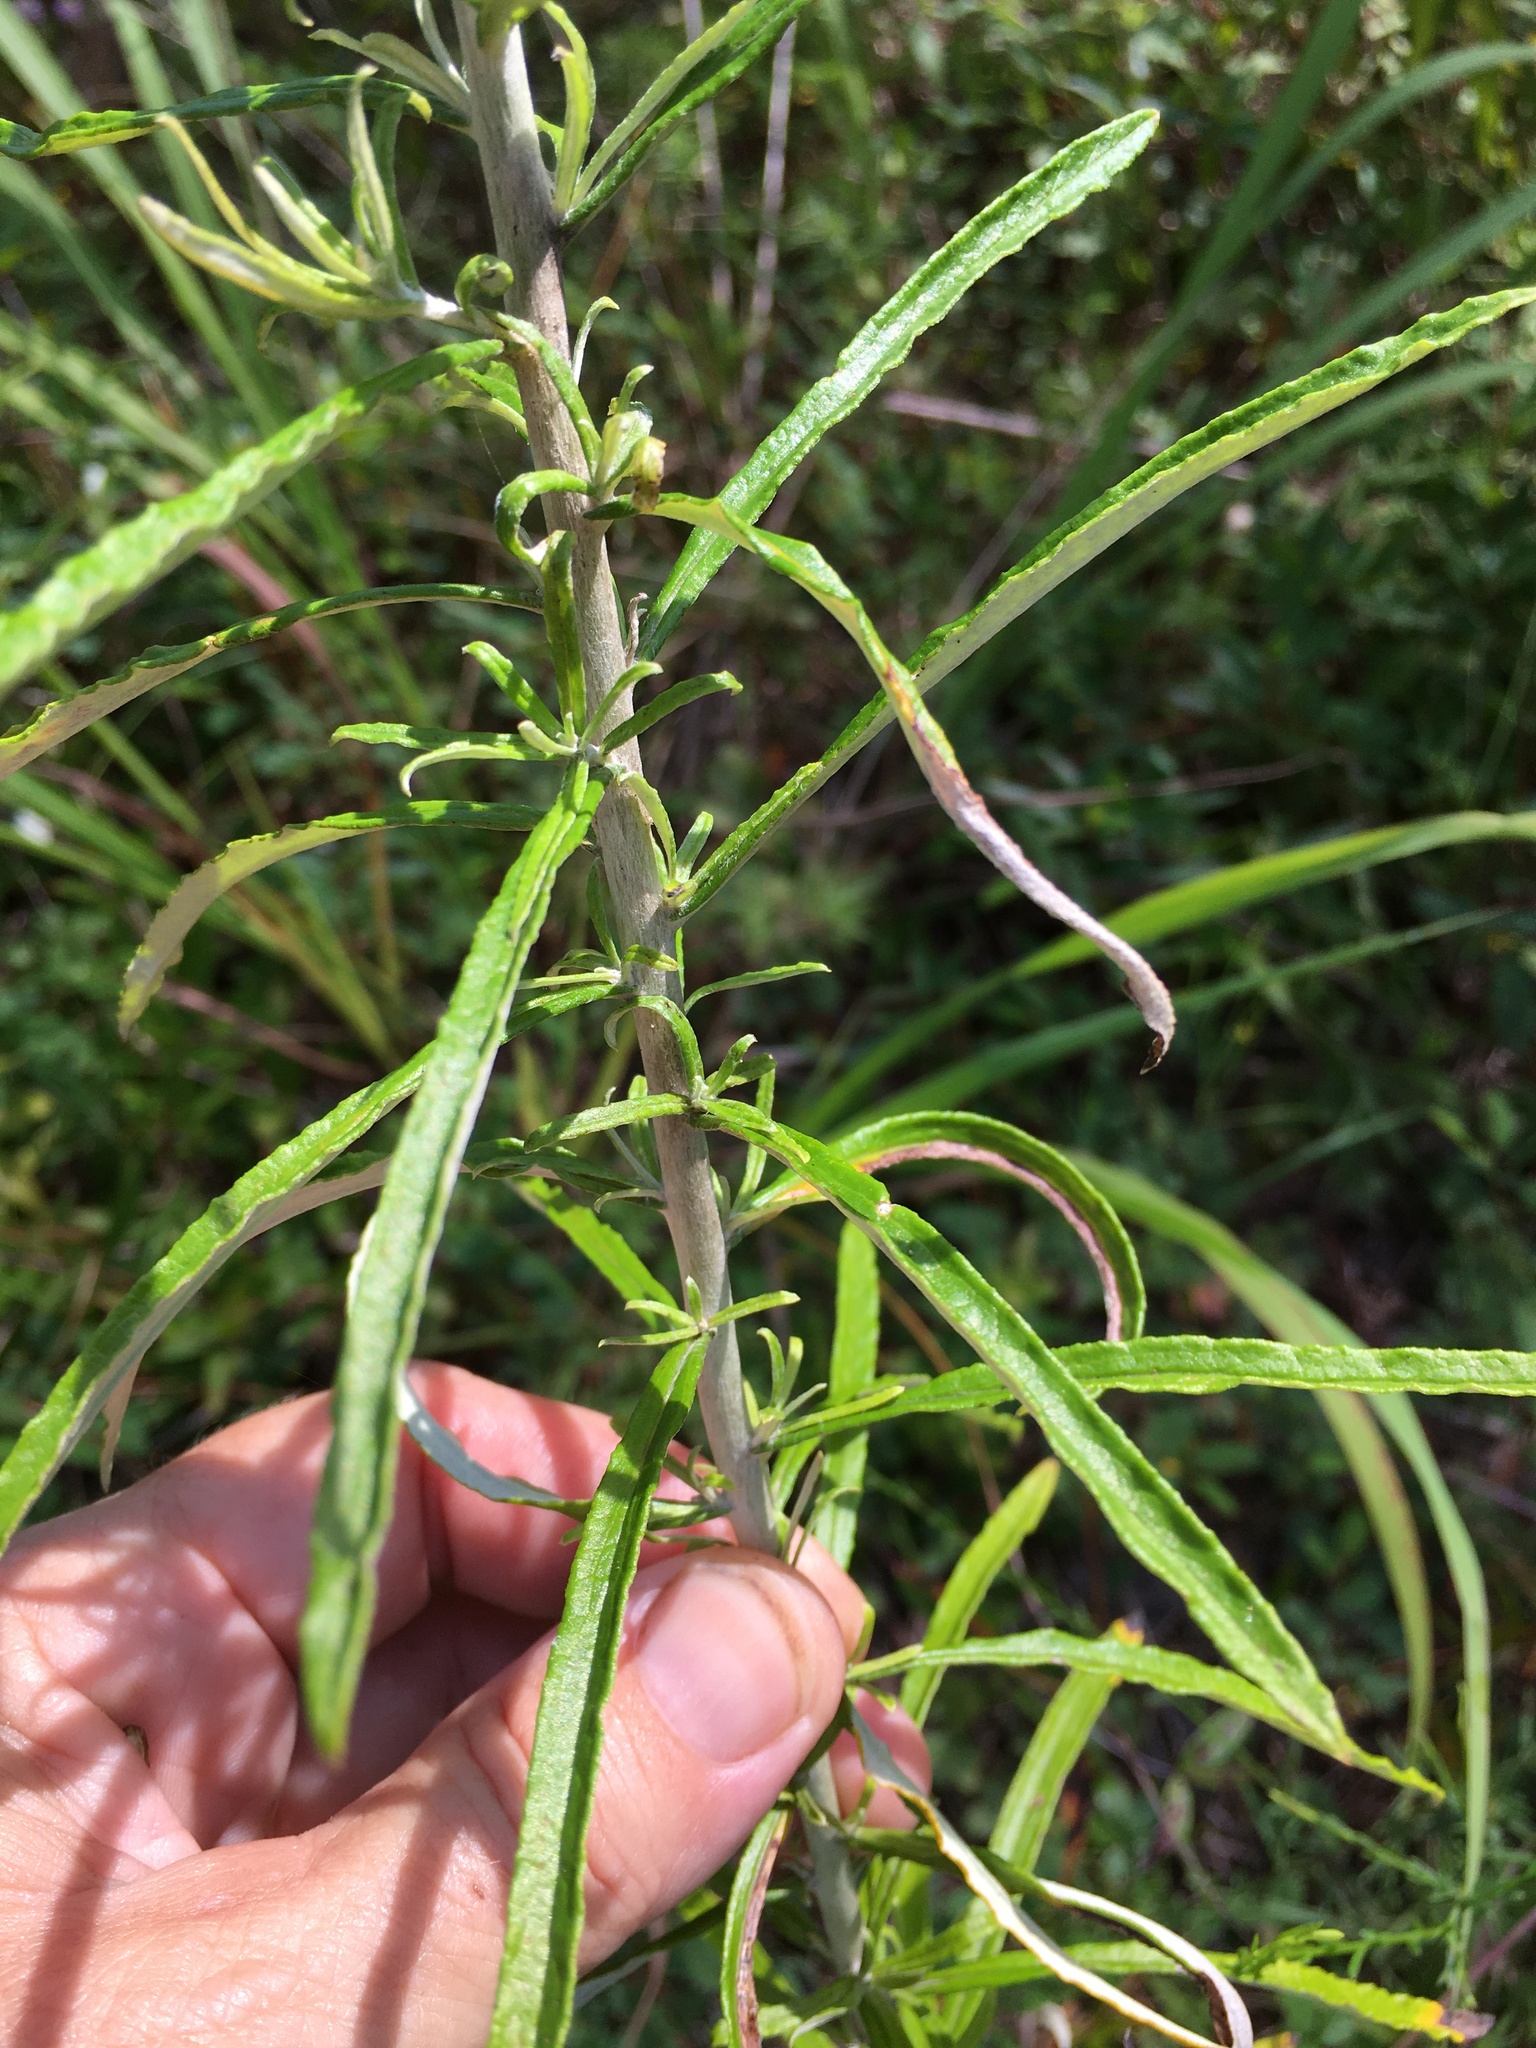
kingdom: Plantae
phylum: Tracheophyta
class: Magnoliopsida
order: Asterales
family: Asteraceae
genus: Pseudognaphalium
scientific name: Pseudognaphalium obtusifolium
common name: Eastern rabbit-tobacco
